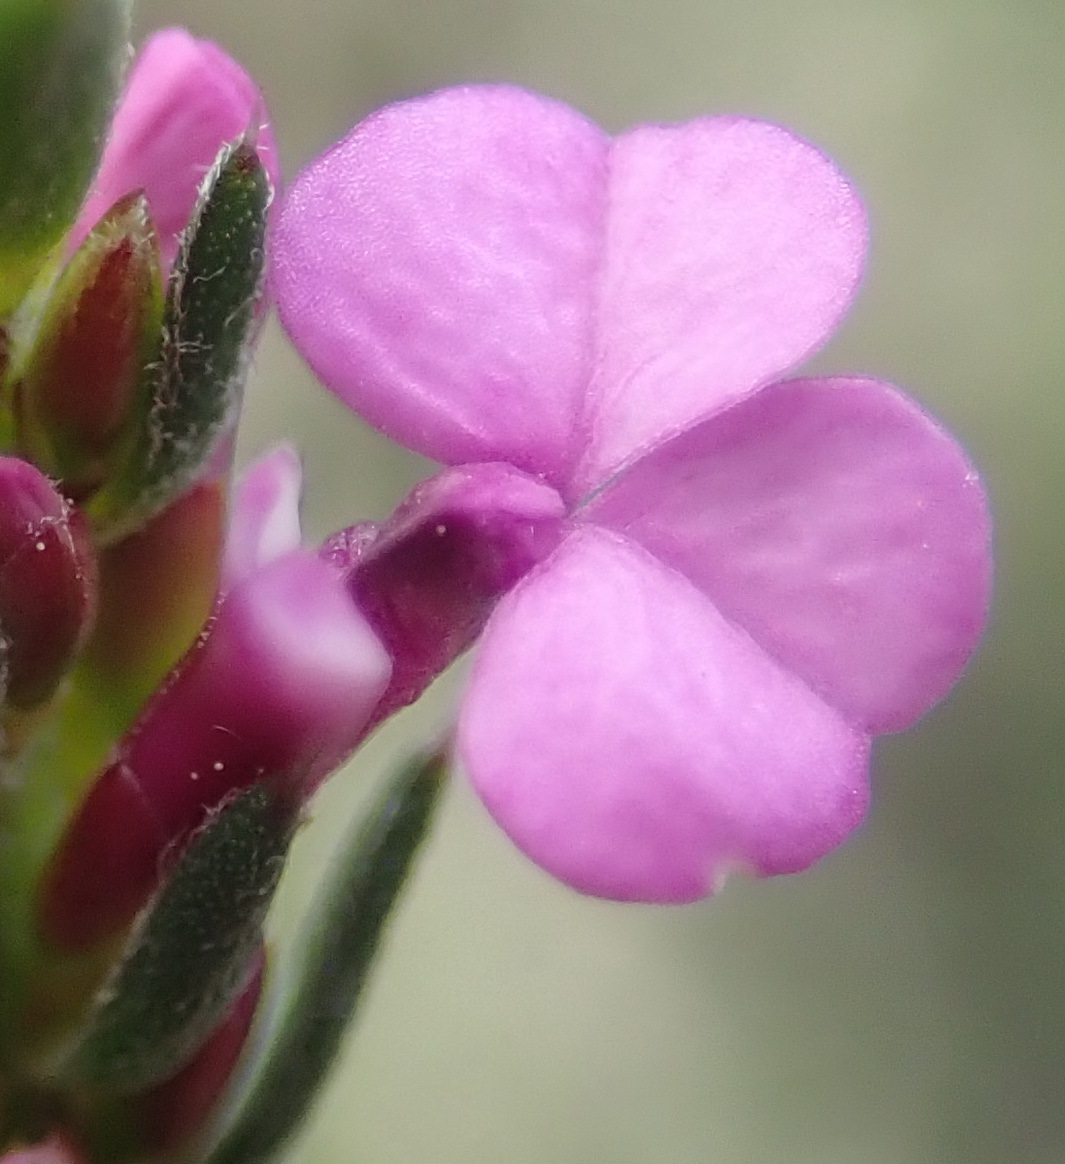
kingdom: Plantae
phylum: Tracheophyta
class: Magnoliopsida
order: Fabales
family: Polygalaceae
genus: Muraltia
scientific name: Muraltia knysnaensis
